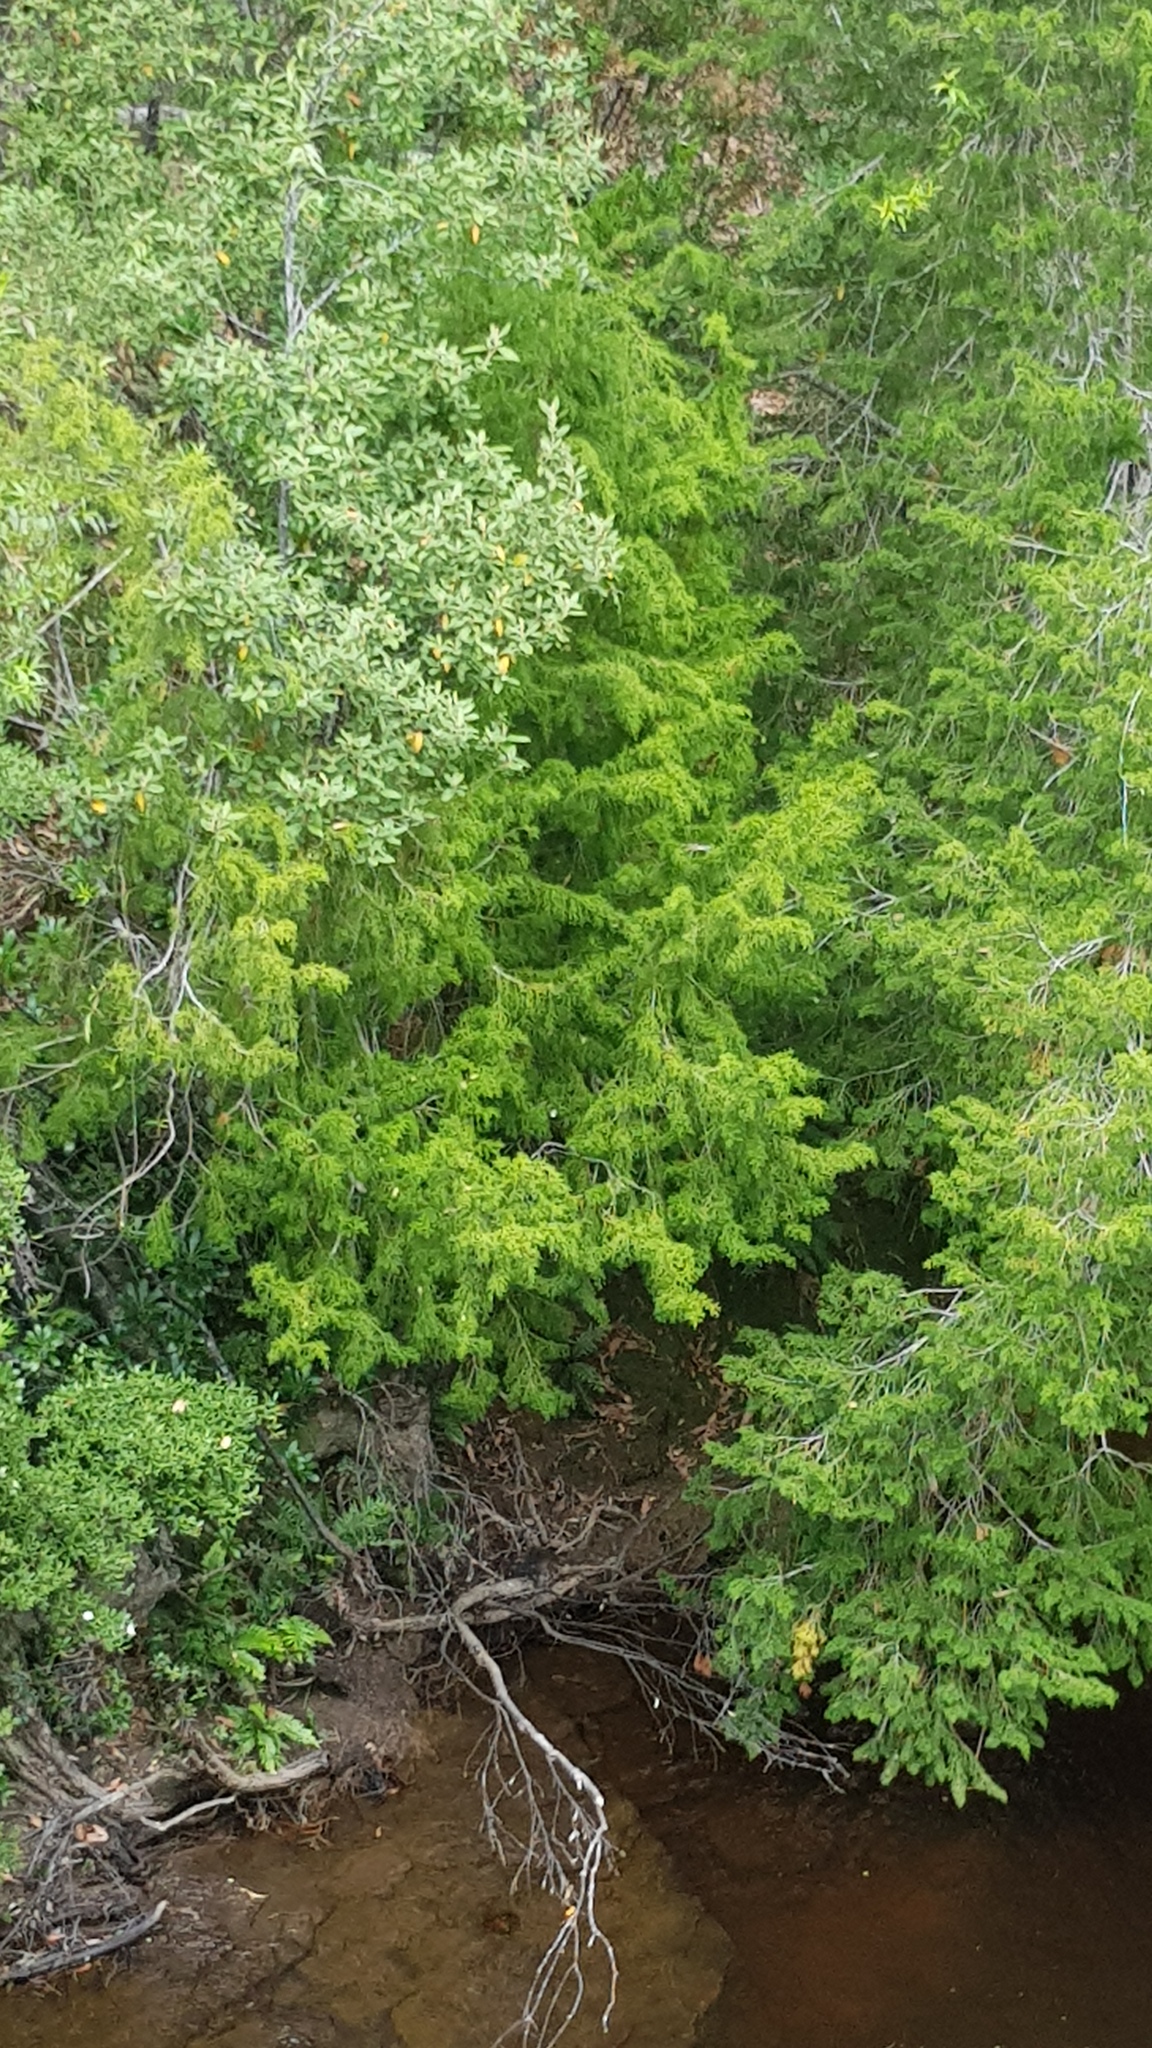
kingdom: Plantae
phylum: Tracheophyta
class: Pinopsida
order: Pinales
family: Podocarpaceae
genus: Lagarostrobos
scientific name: Lagarostrobos franklinii
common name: Huon pine
